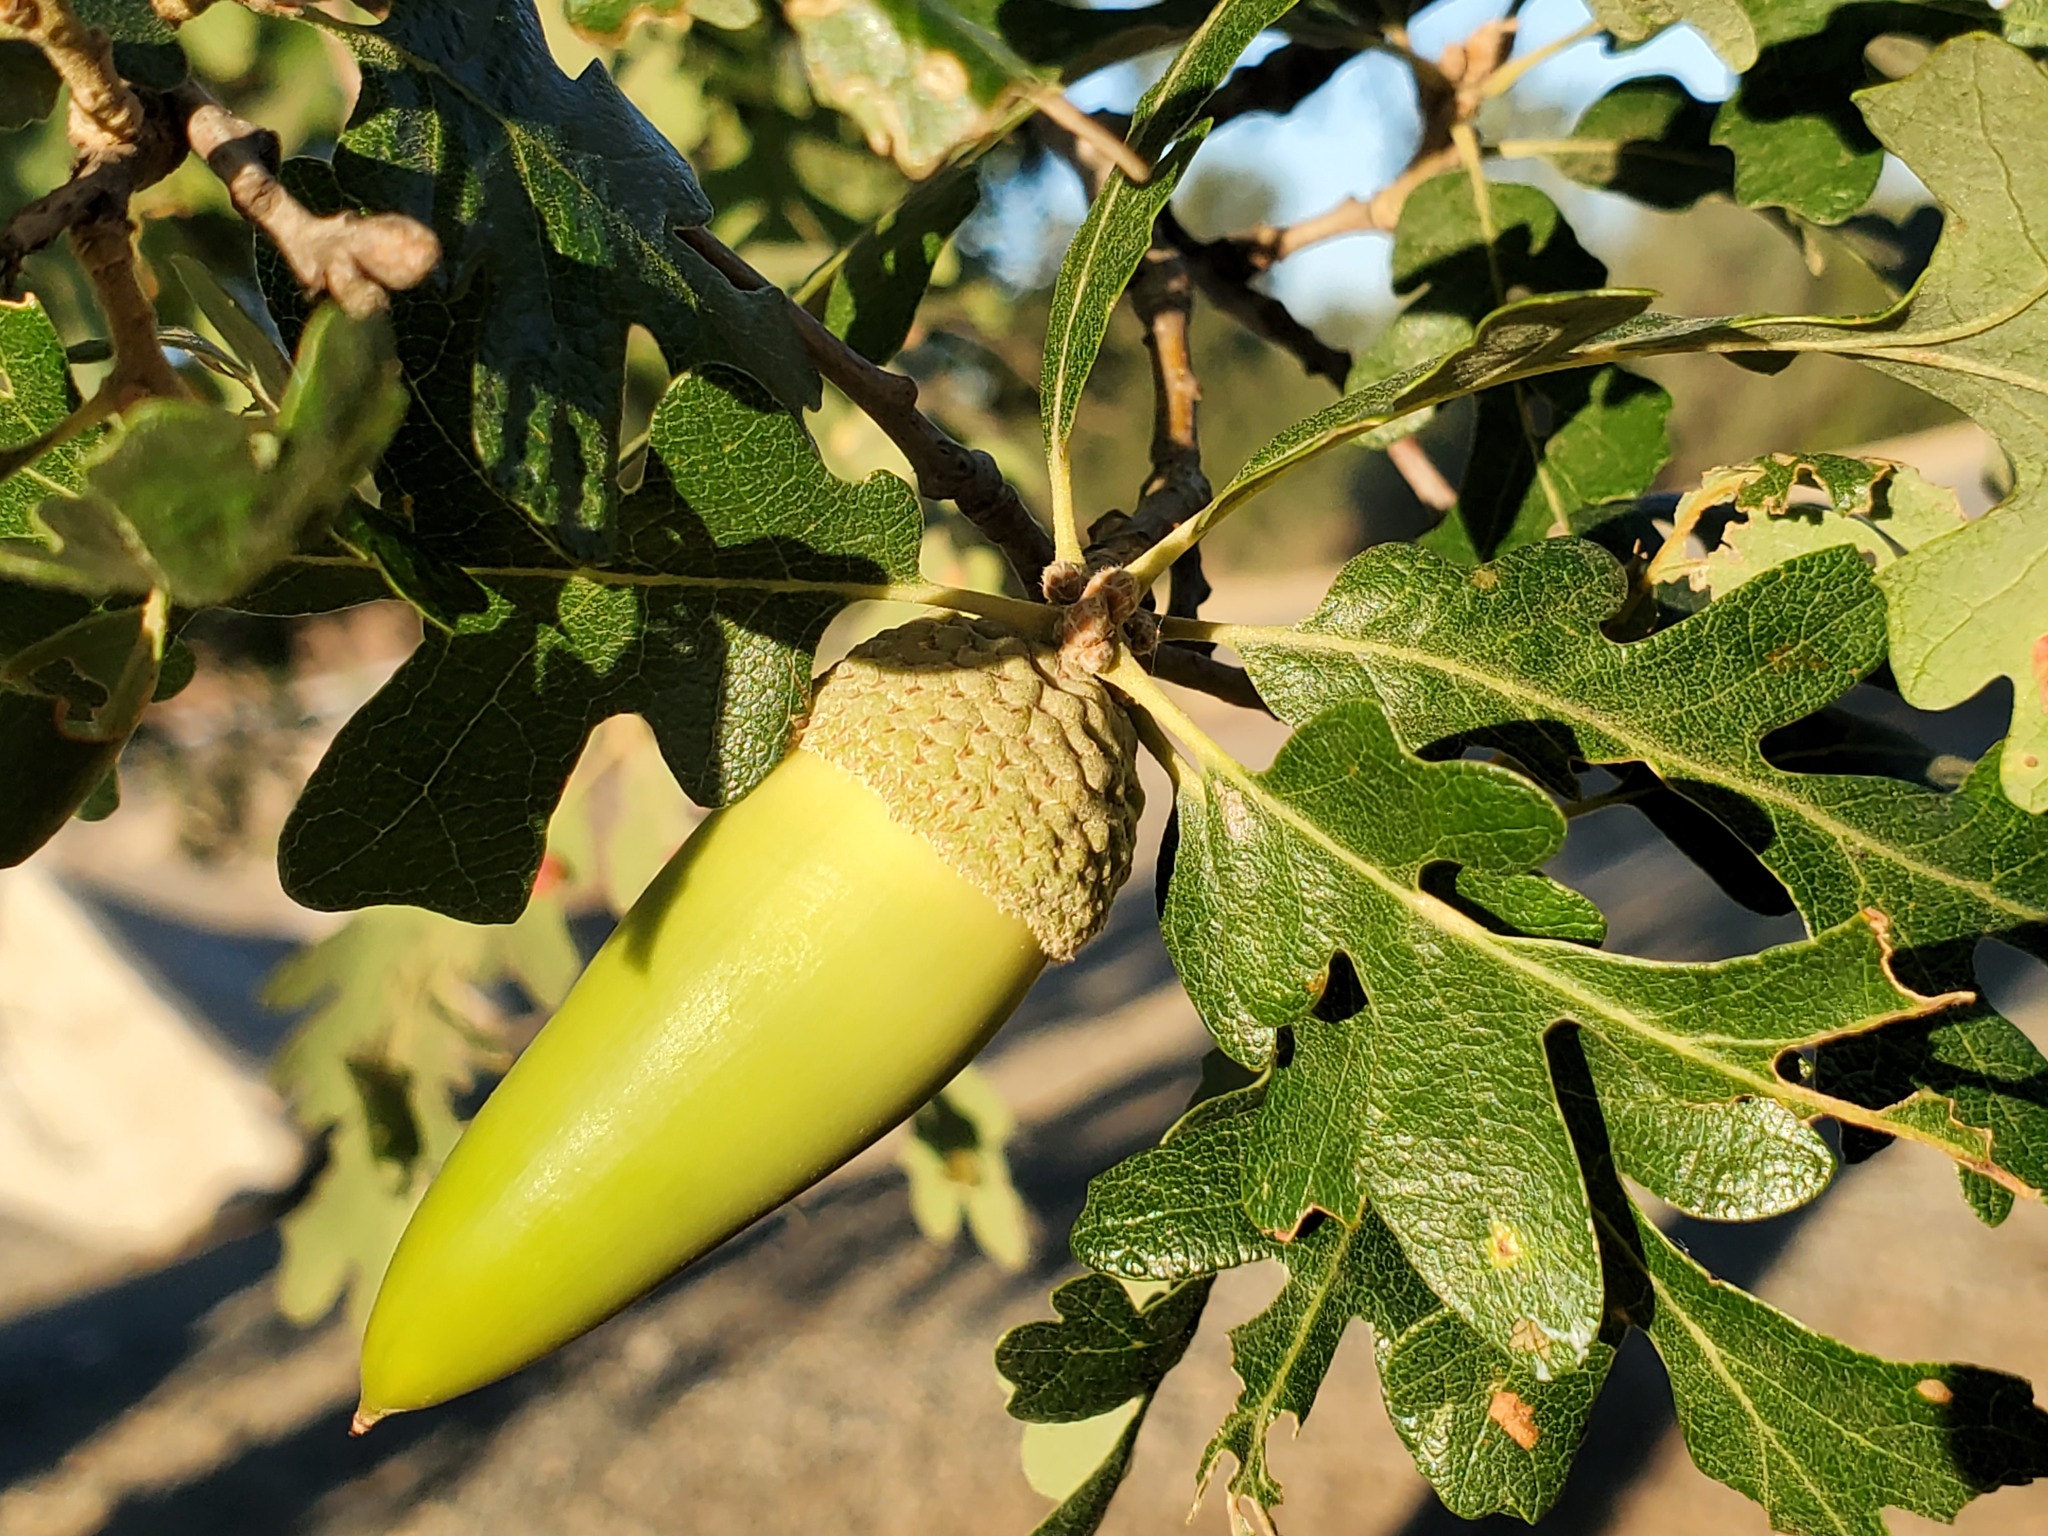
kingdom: Plantae
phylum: Tracheophyta
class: Magnoliopsida
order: Fagales
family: Fagaceae
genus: Quercus
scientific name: Quercus lobata
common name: Valley oak
